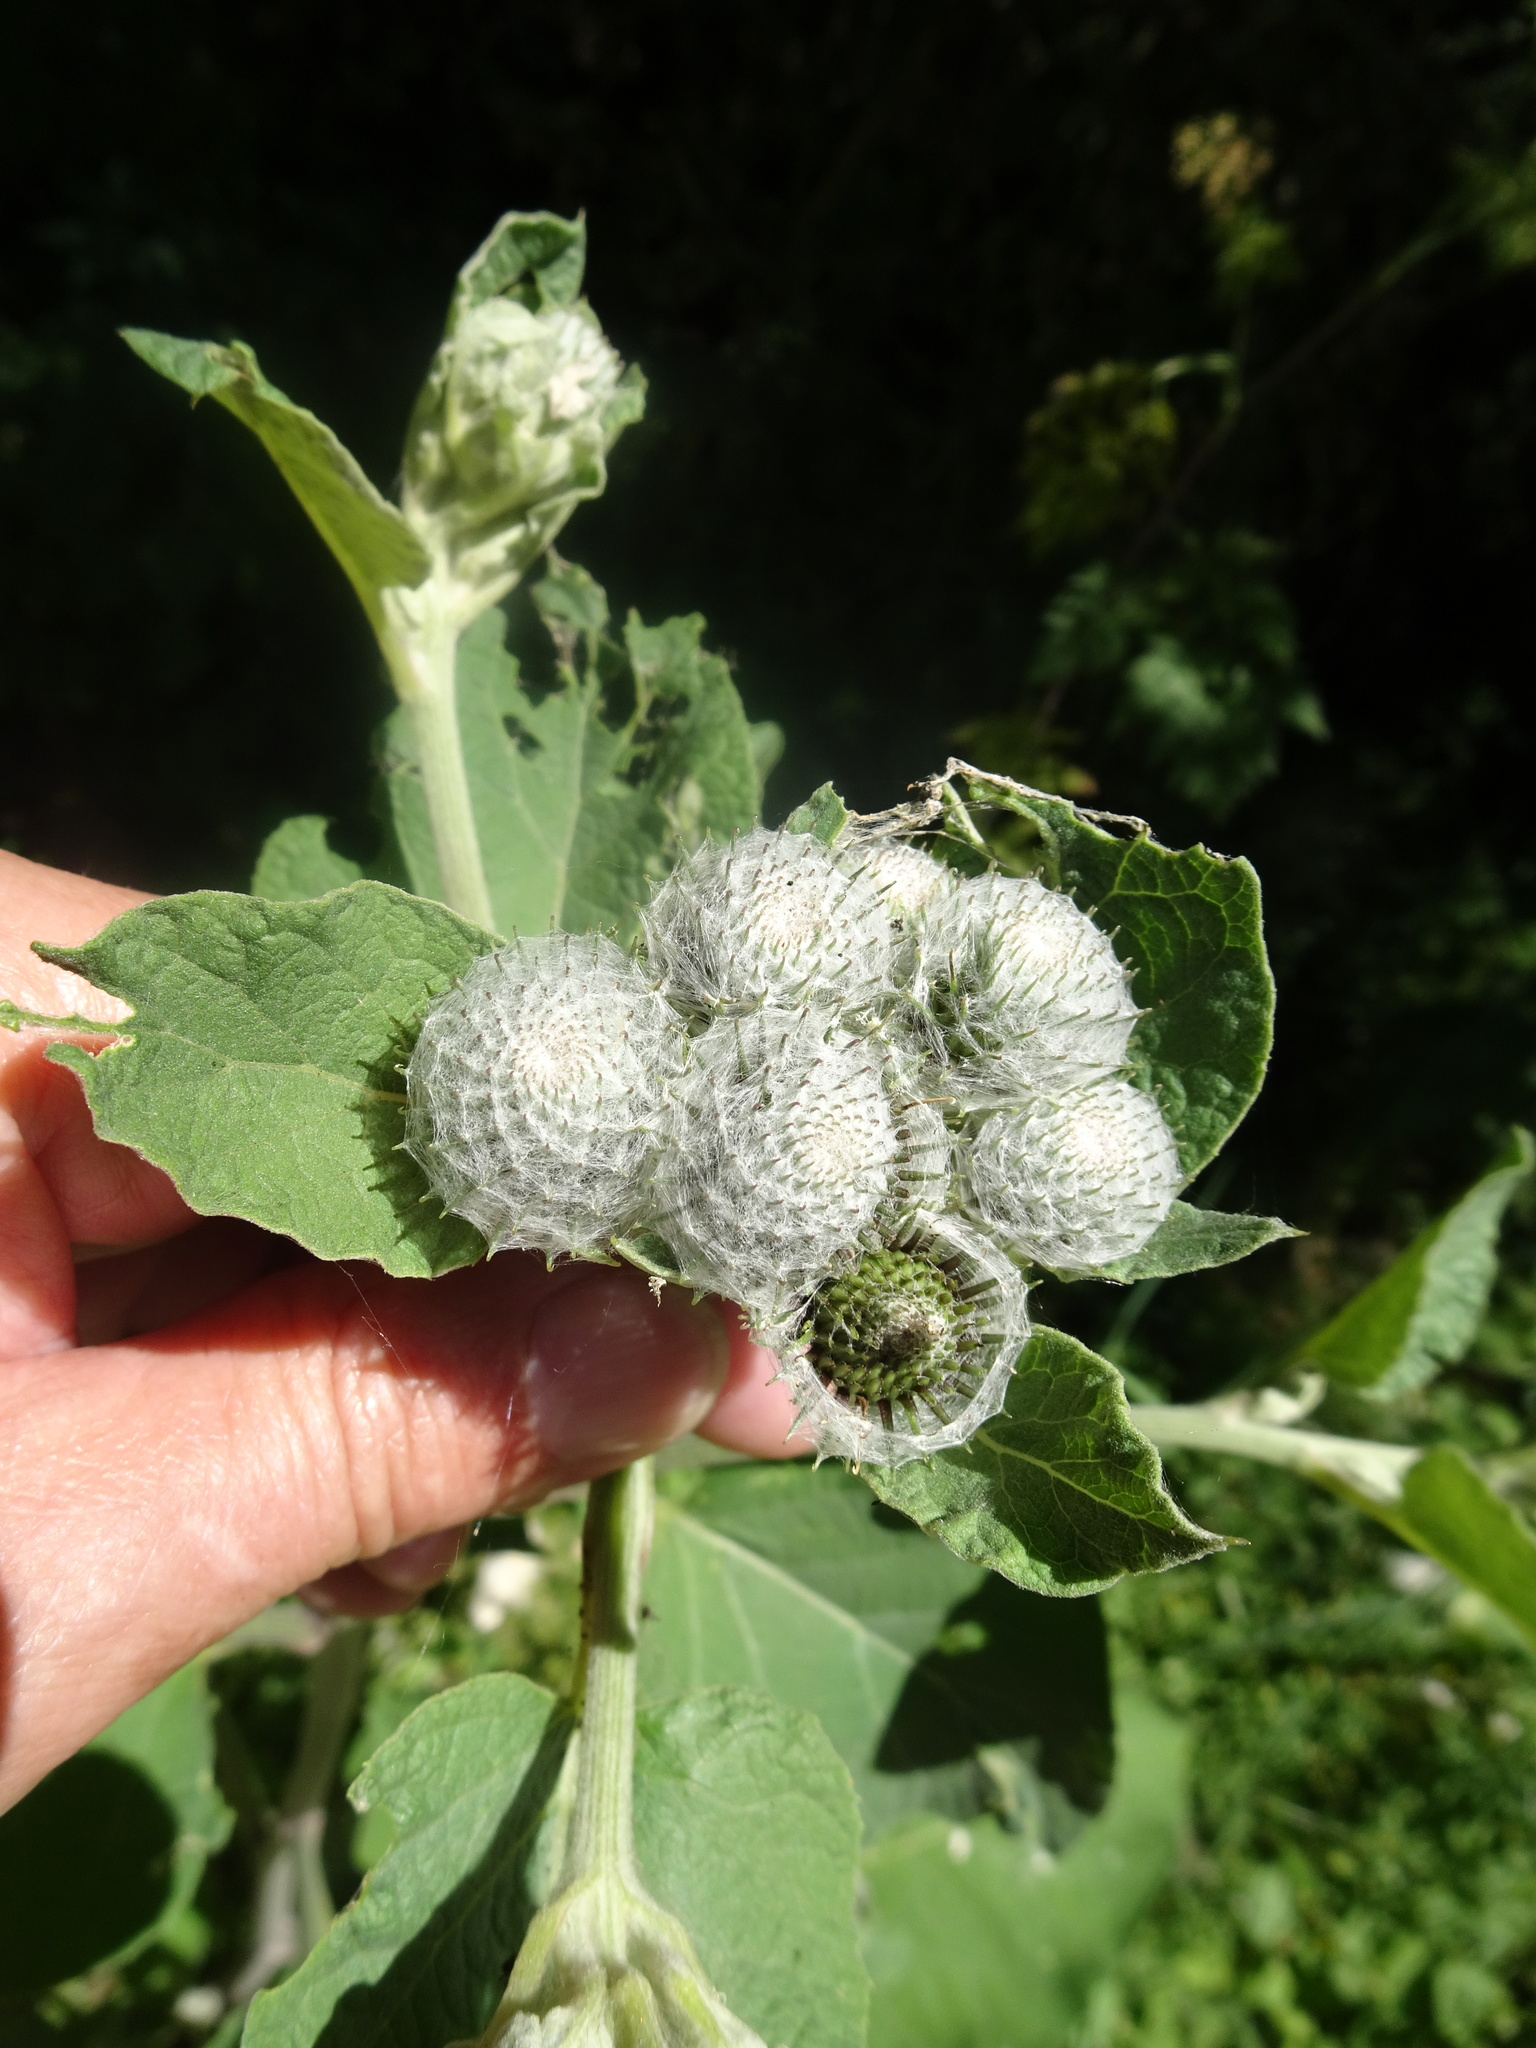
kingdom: Plantae
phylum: Tracheophyta
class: Magnoliopsida
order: Asterales
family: Asteraceae
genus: Arctium
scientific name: Arctium tomentosum
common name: Woolly burdock
